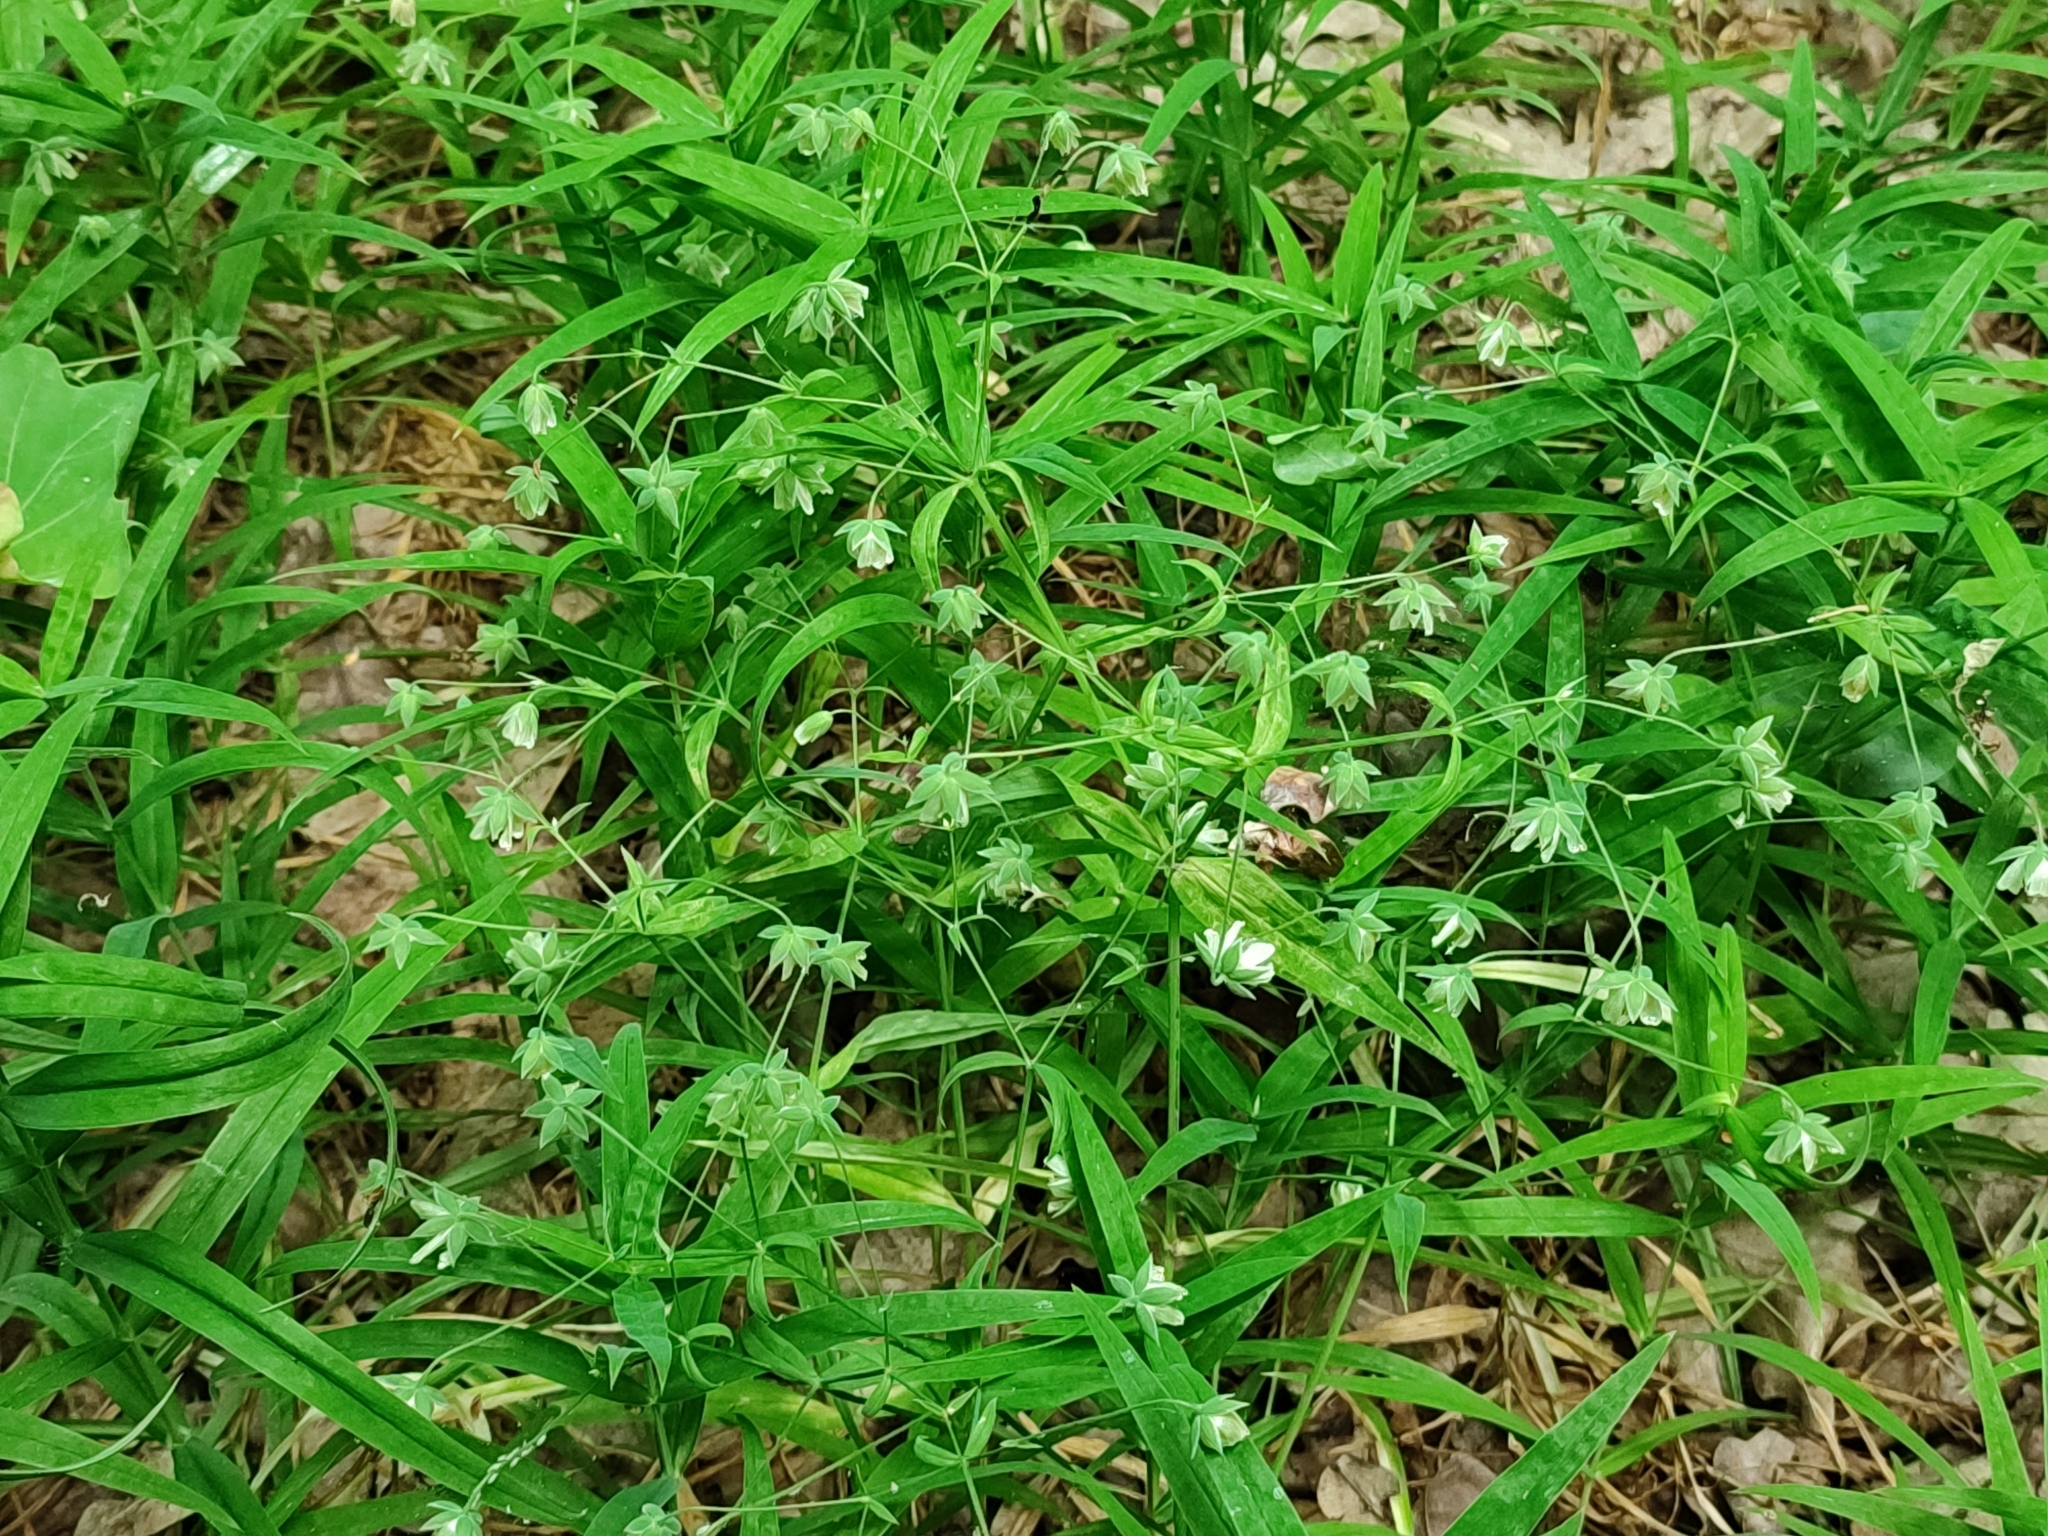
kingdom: Plantae
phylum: Tracheophyta
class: Magnoliopsida
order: Caryophyllales
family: Caryophyllaceae
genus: Rabelera
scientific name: Rabelera holostea
